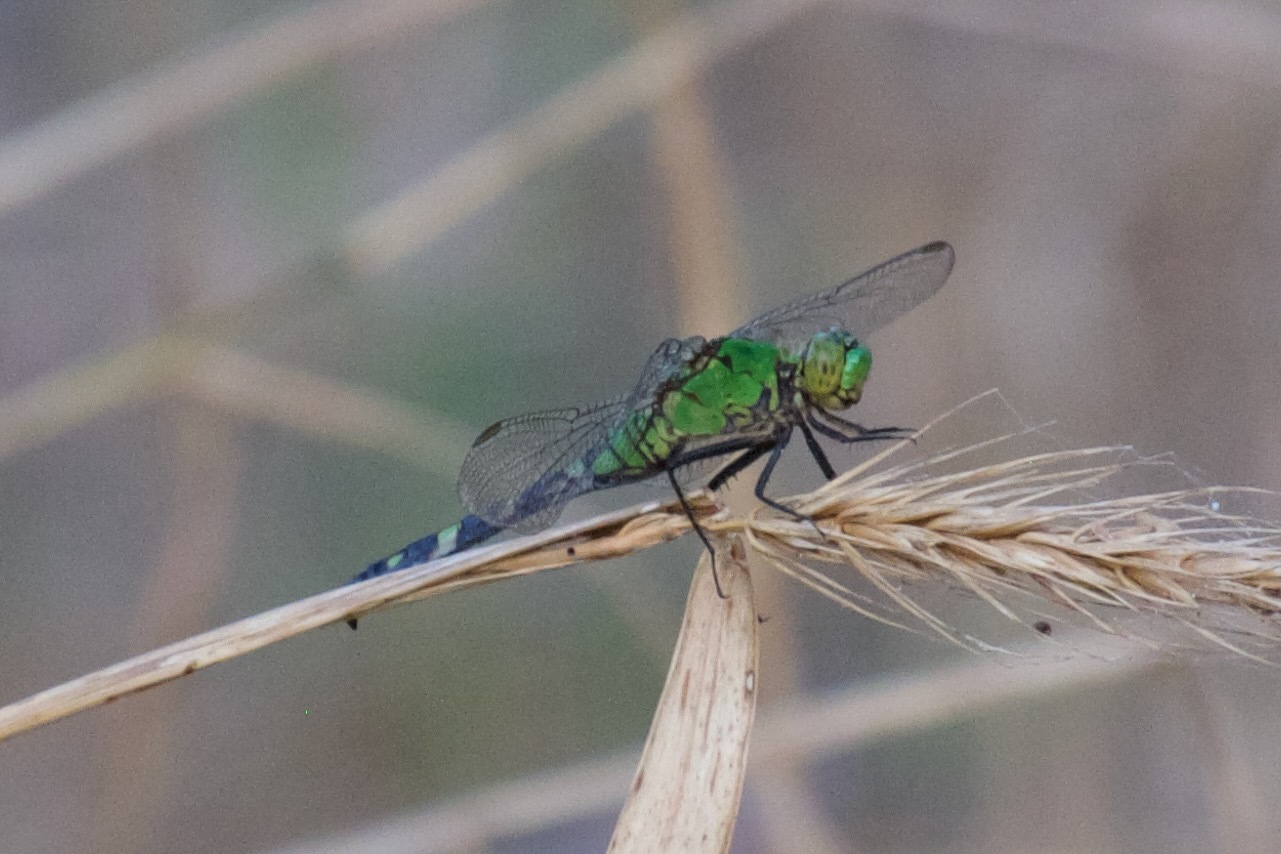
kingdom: Animalia
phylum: Arthropoda
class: Insecta
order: Odonata
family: Libellulidae
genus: Erythemis
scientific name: Erythemis simplicicollis
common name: Eastern pondhawk
